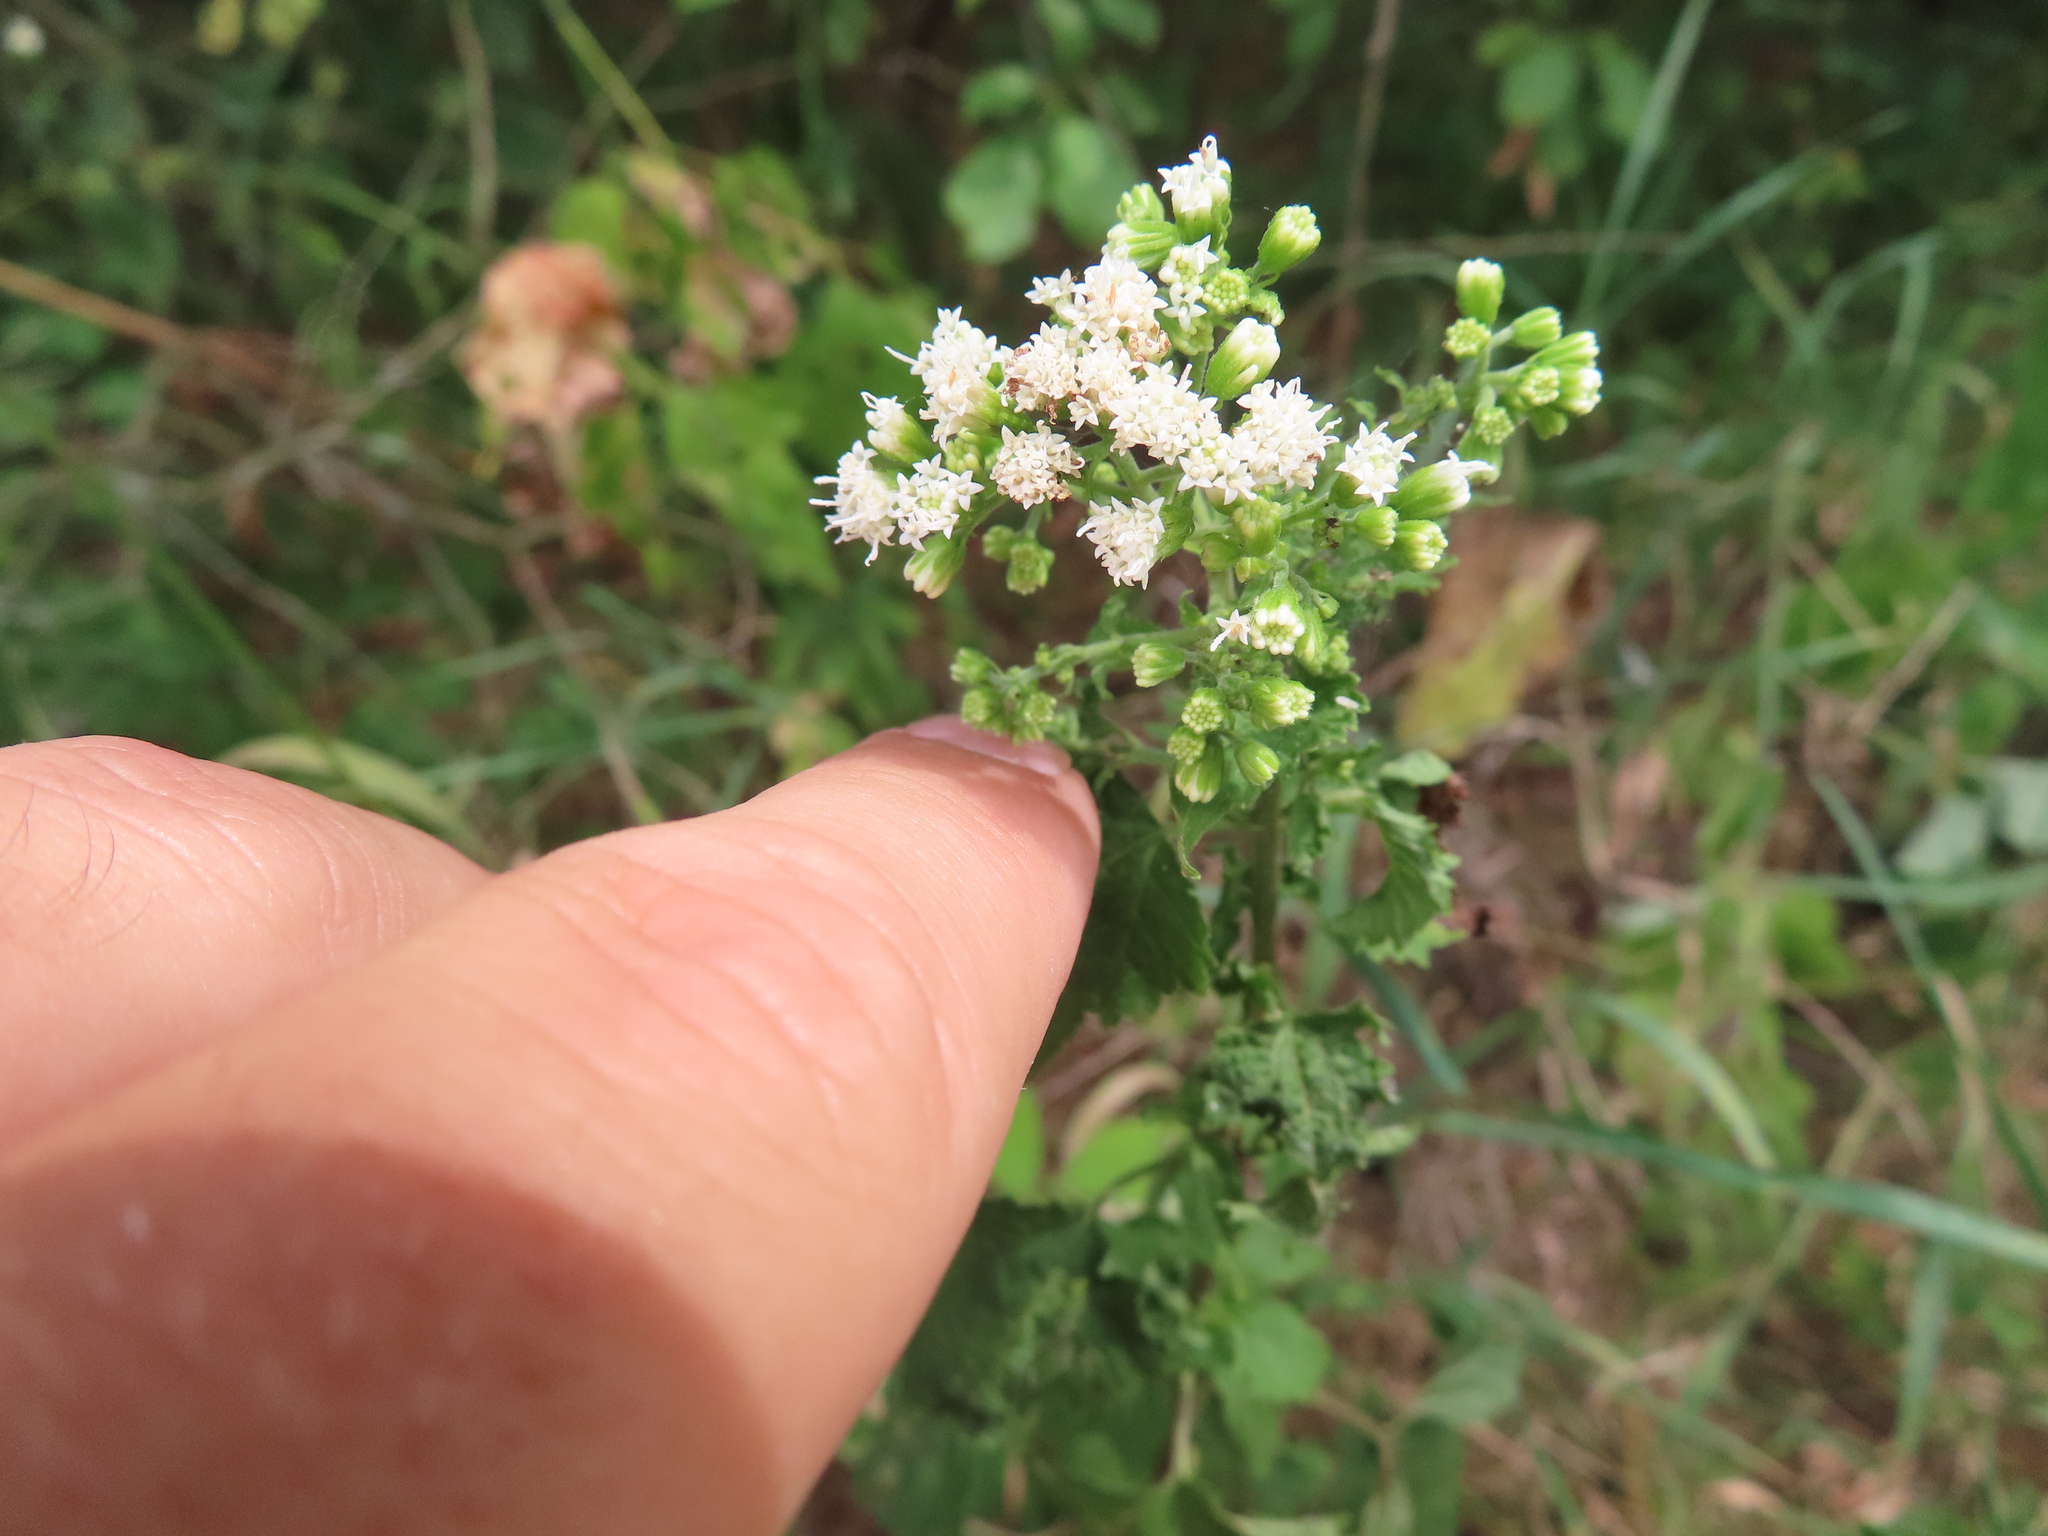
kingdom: Plantae
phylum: Tracheophyta
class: Magnoliopsida
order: Asterales
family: Asteraceae
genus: Ageratina
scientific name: Ageratina altissima
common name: White snakeroot
